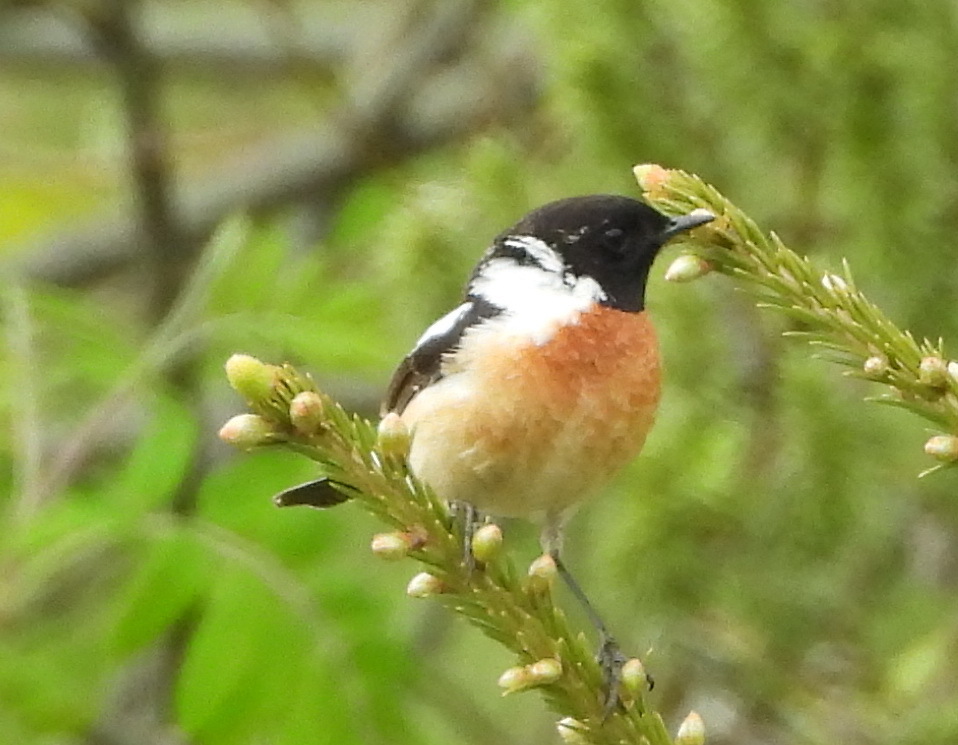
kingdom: Animalia
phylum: Chordata
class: Aves
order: Passeriformes
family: Muscicapidae
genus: Saxicola
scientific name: Saxicola maurus
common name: Siberian stonechat
